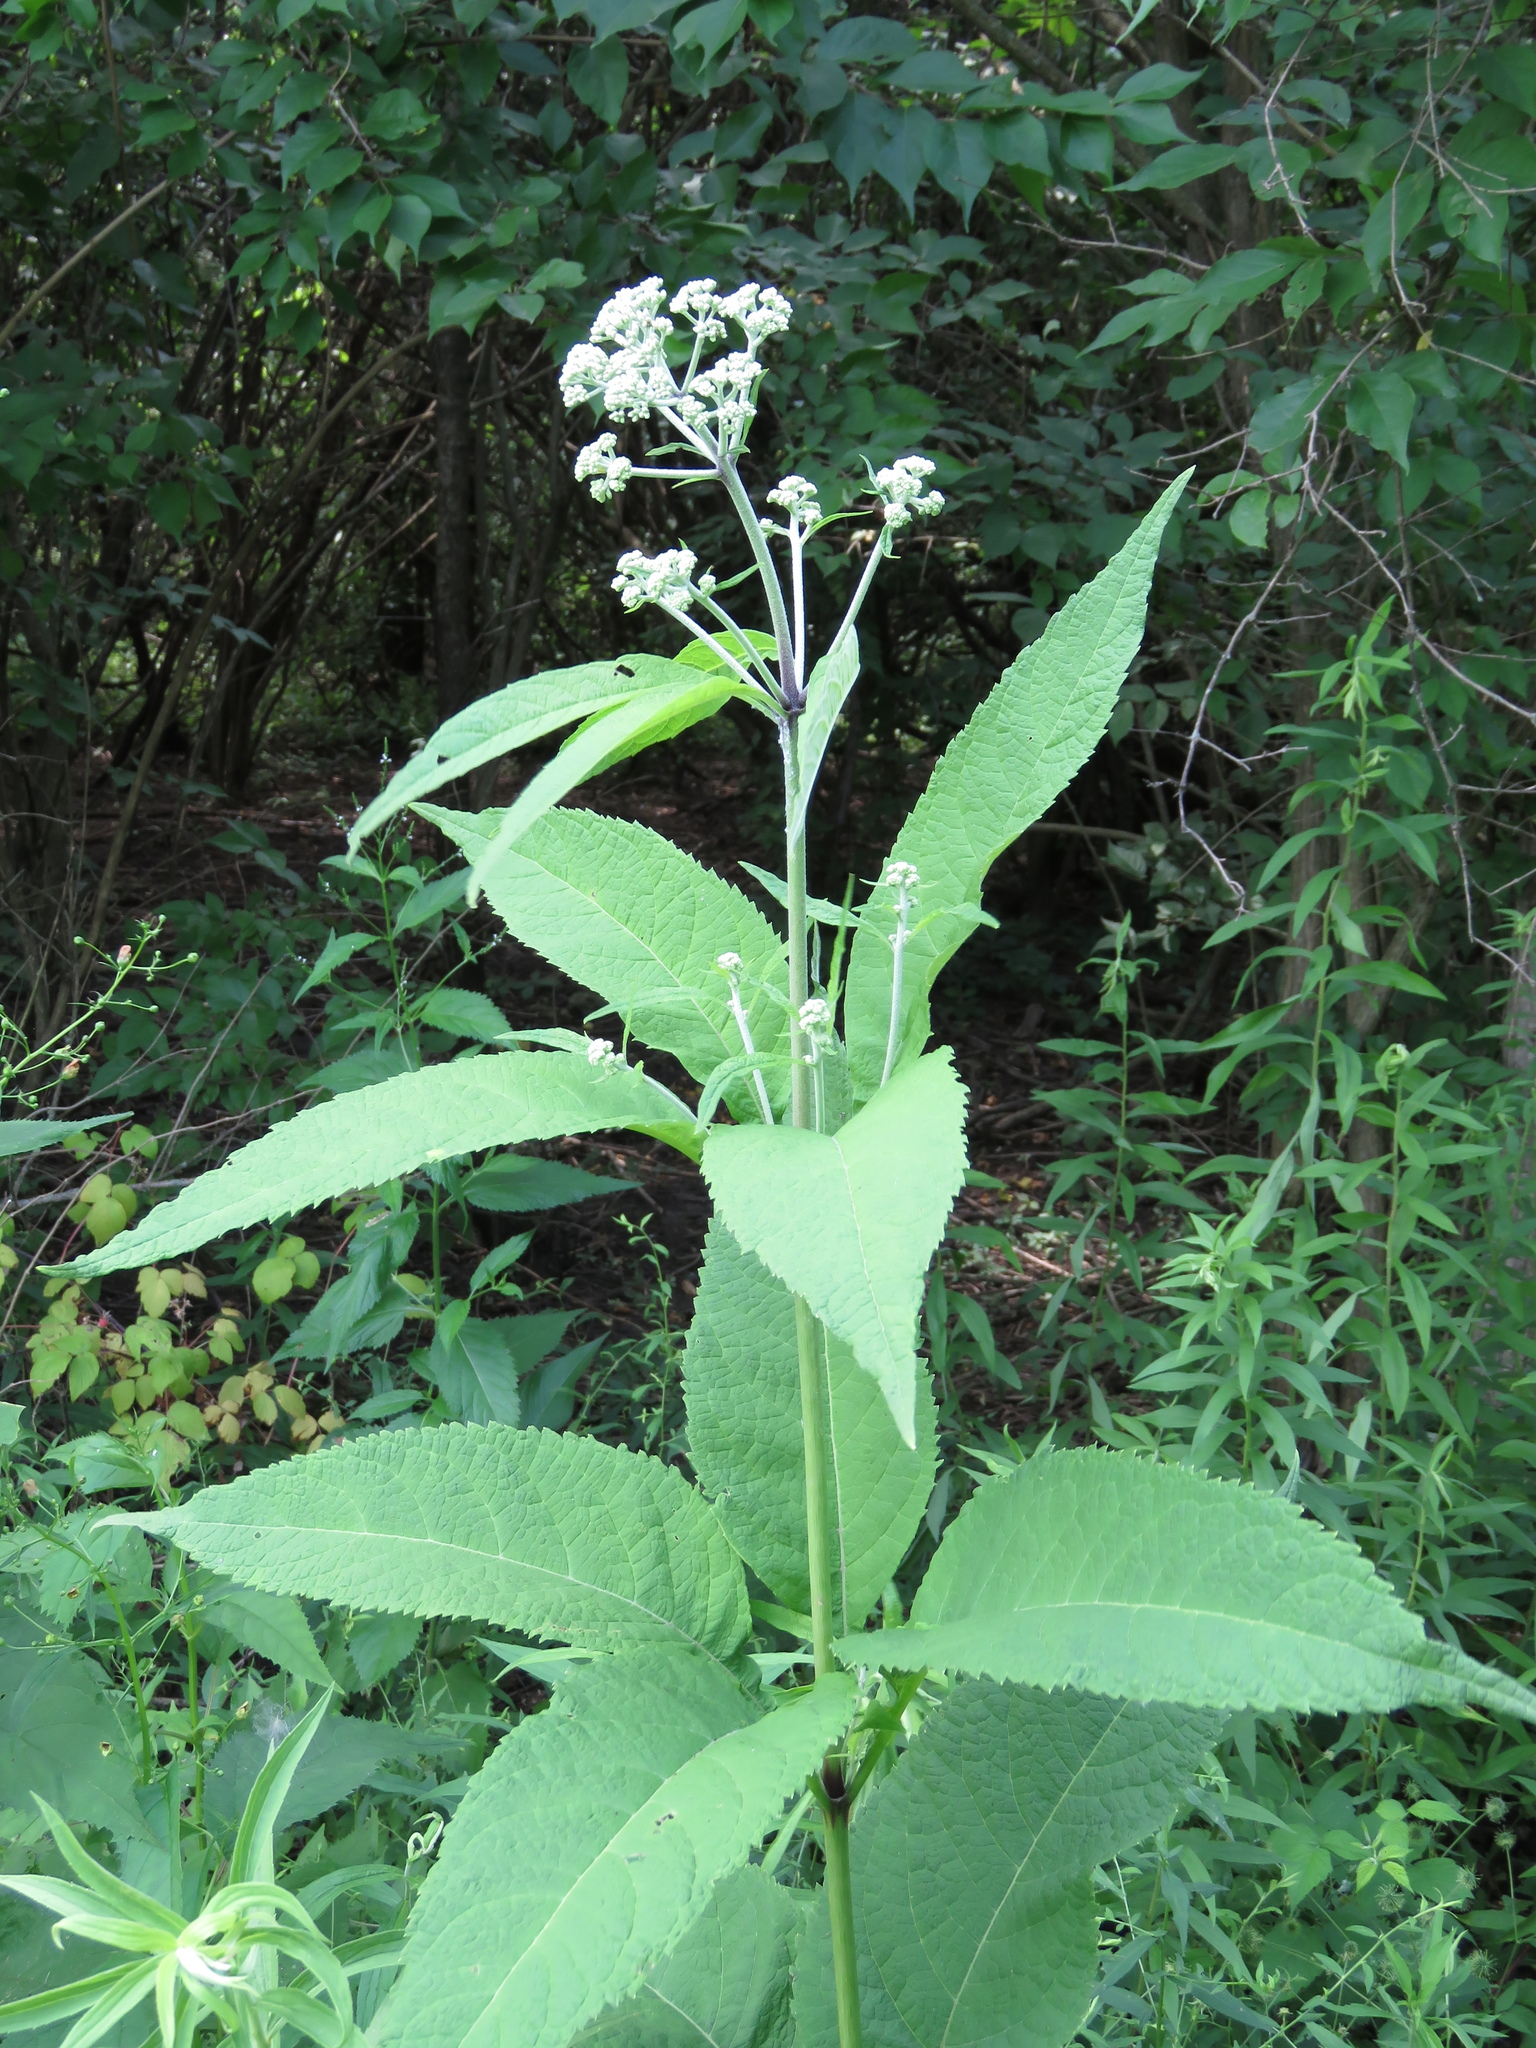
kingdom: Plantae
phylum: Tracheophyta
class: Magnoliopsida
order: Asterales
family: Asteraceae
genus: Eutrochium
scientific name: Eutrochium purpureum
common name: Gravelroot
